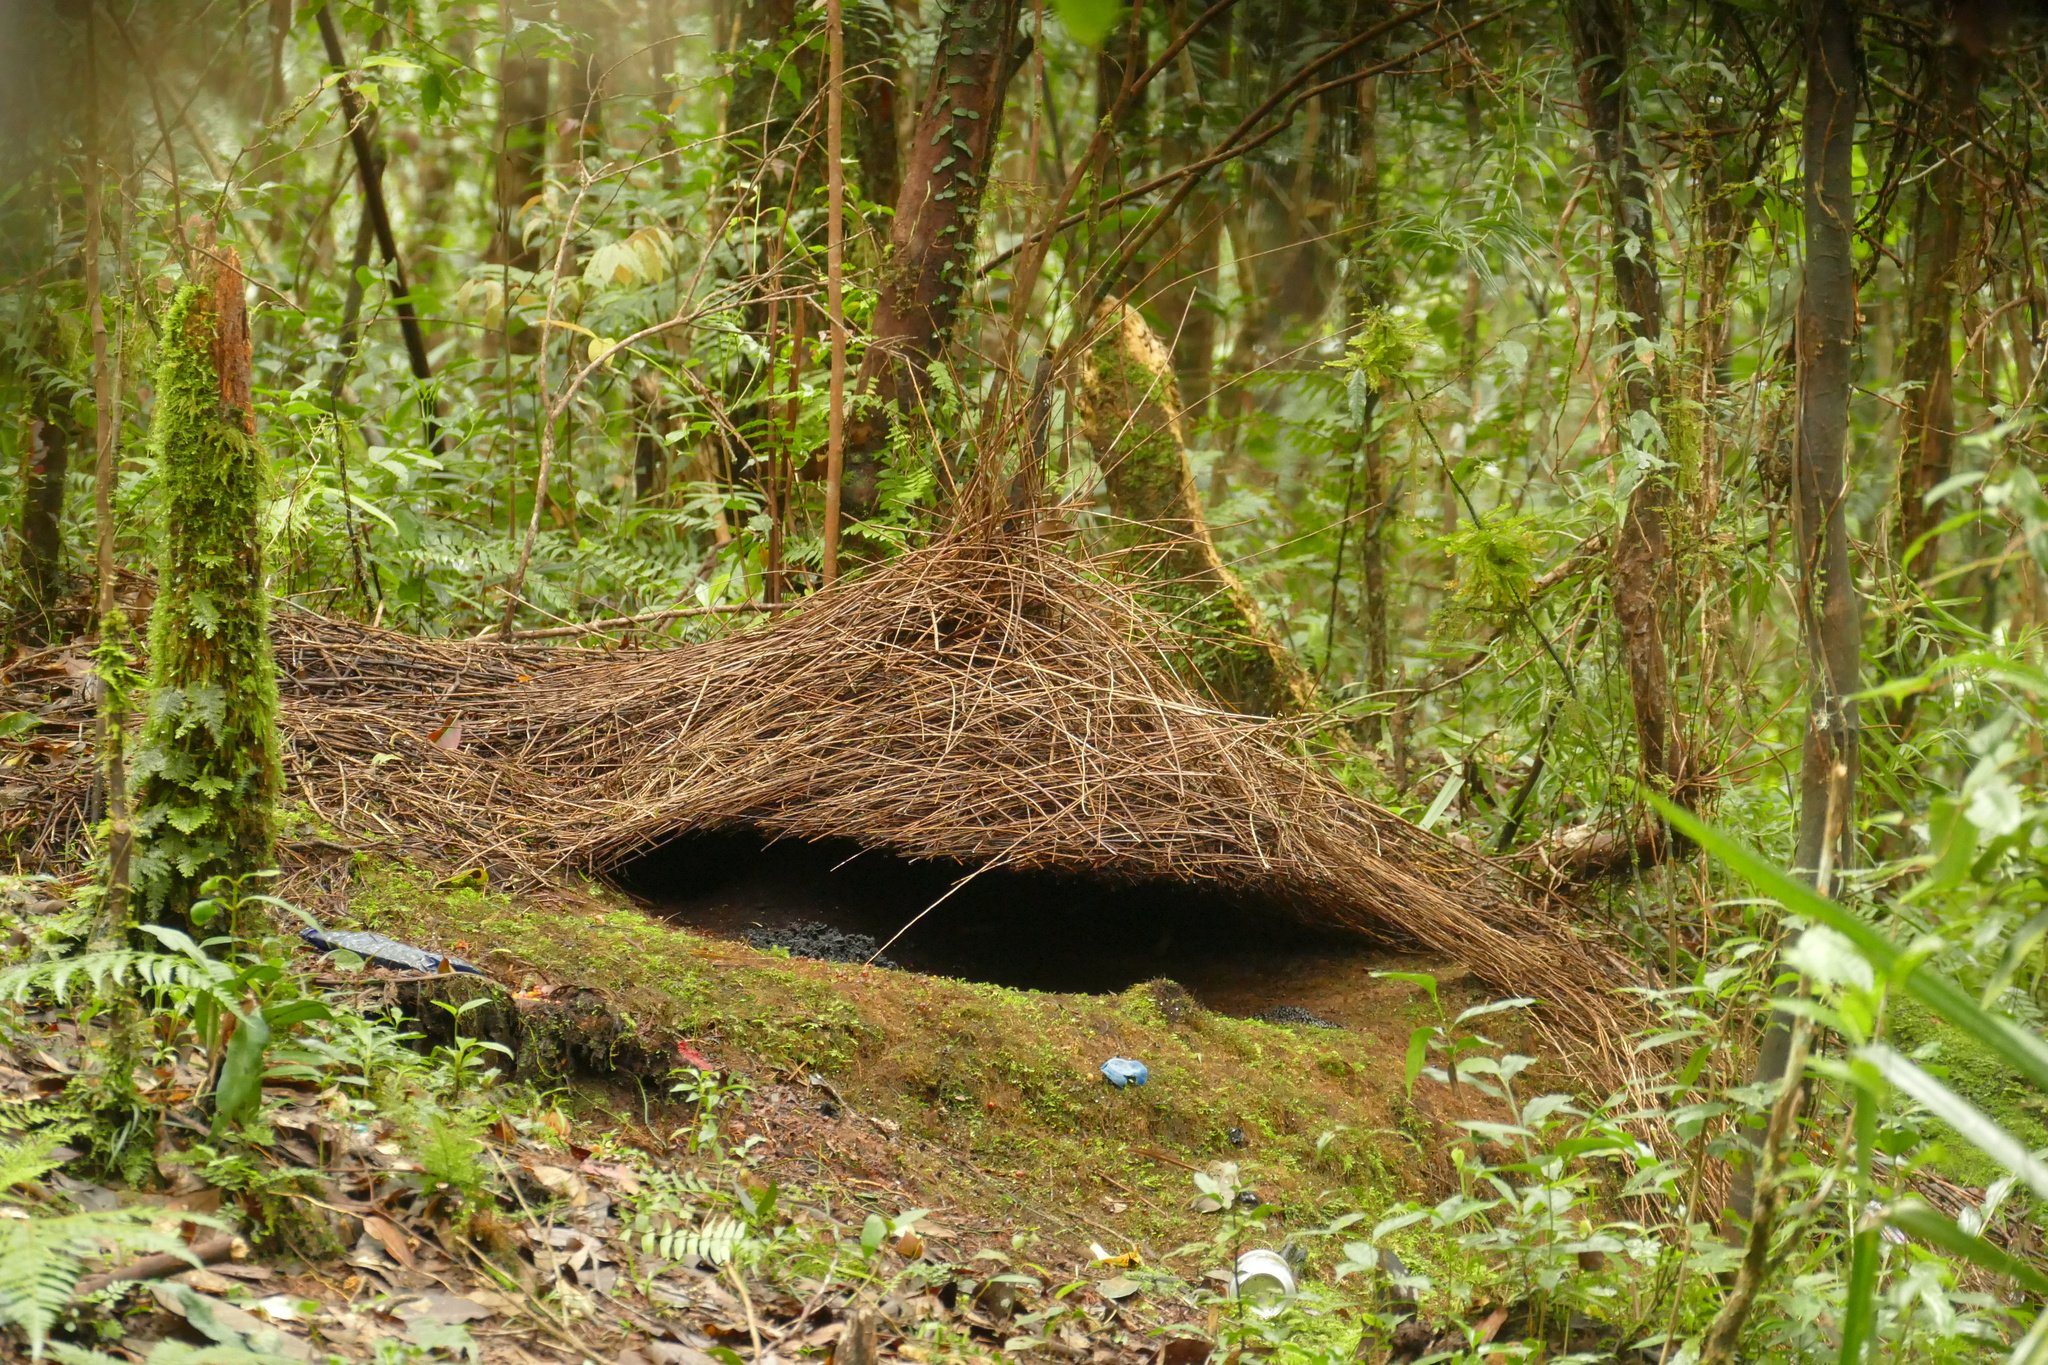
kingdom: Animalia
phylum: Chordata
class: Aves
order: Passeriformes
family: Ptilonorhynchidae
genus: Amblyornis
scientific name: Amblyornis inornata
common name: Vogelkop bowerbird
